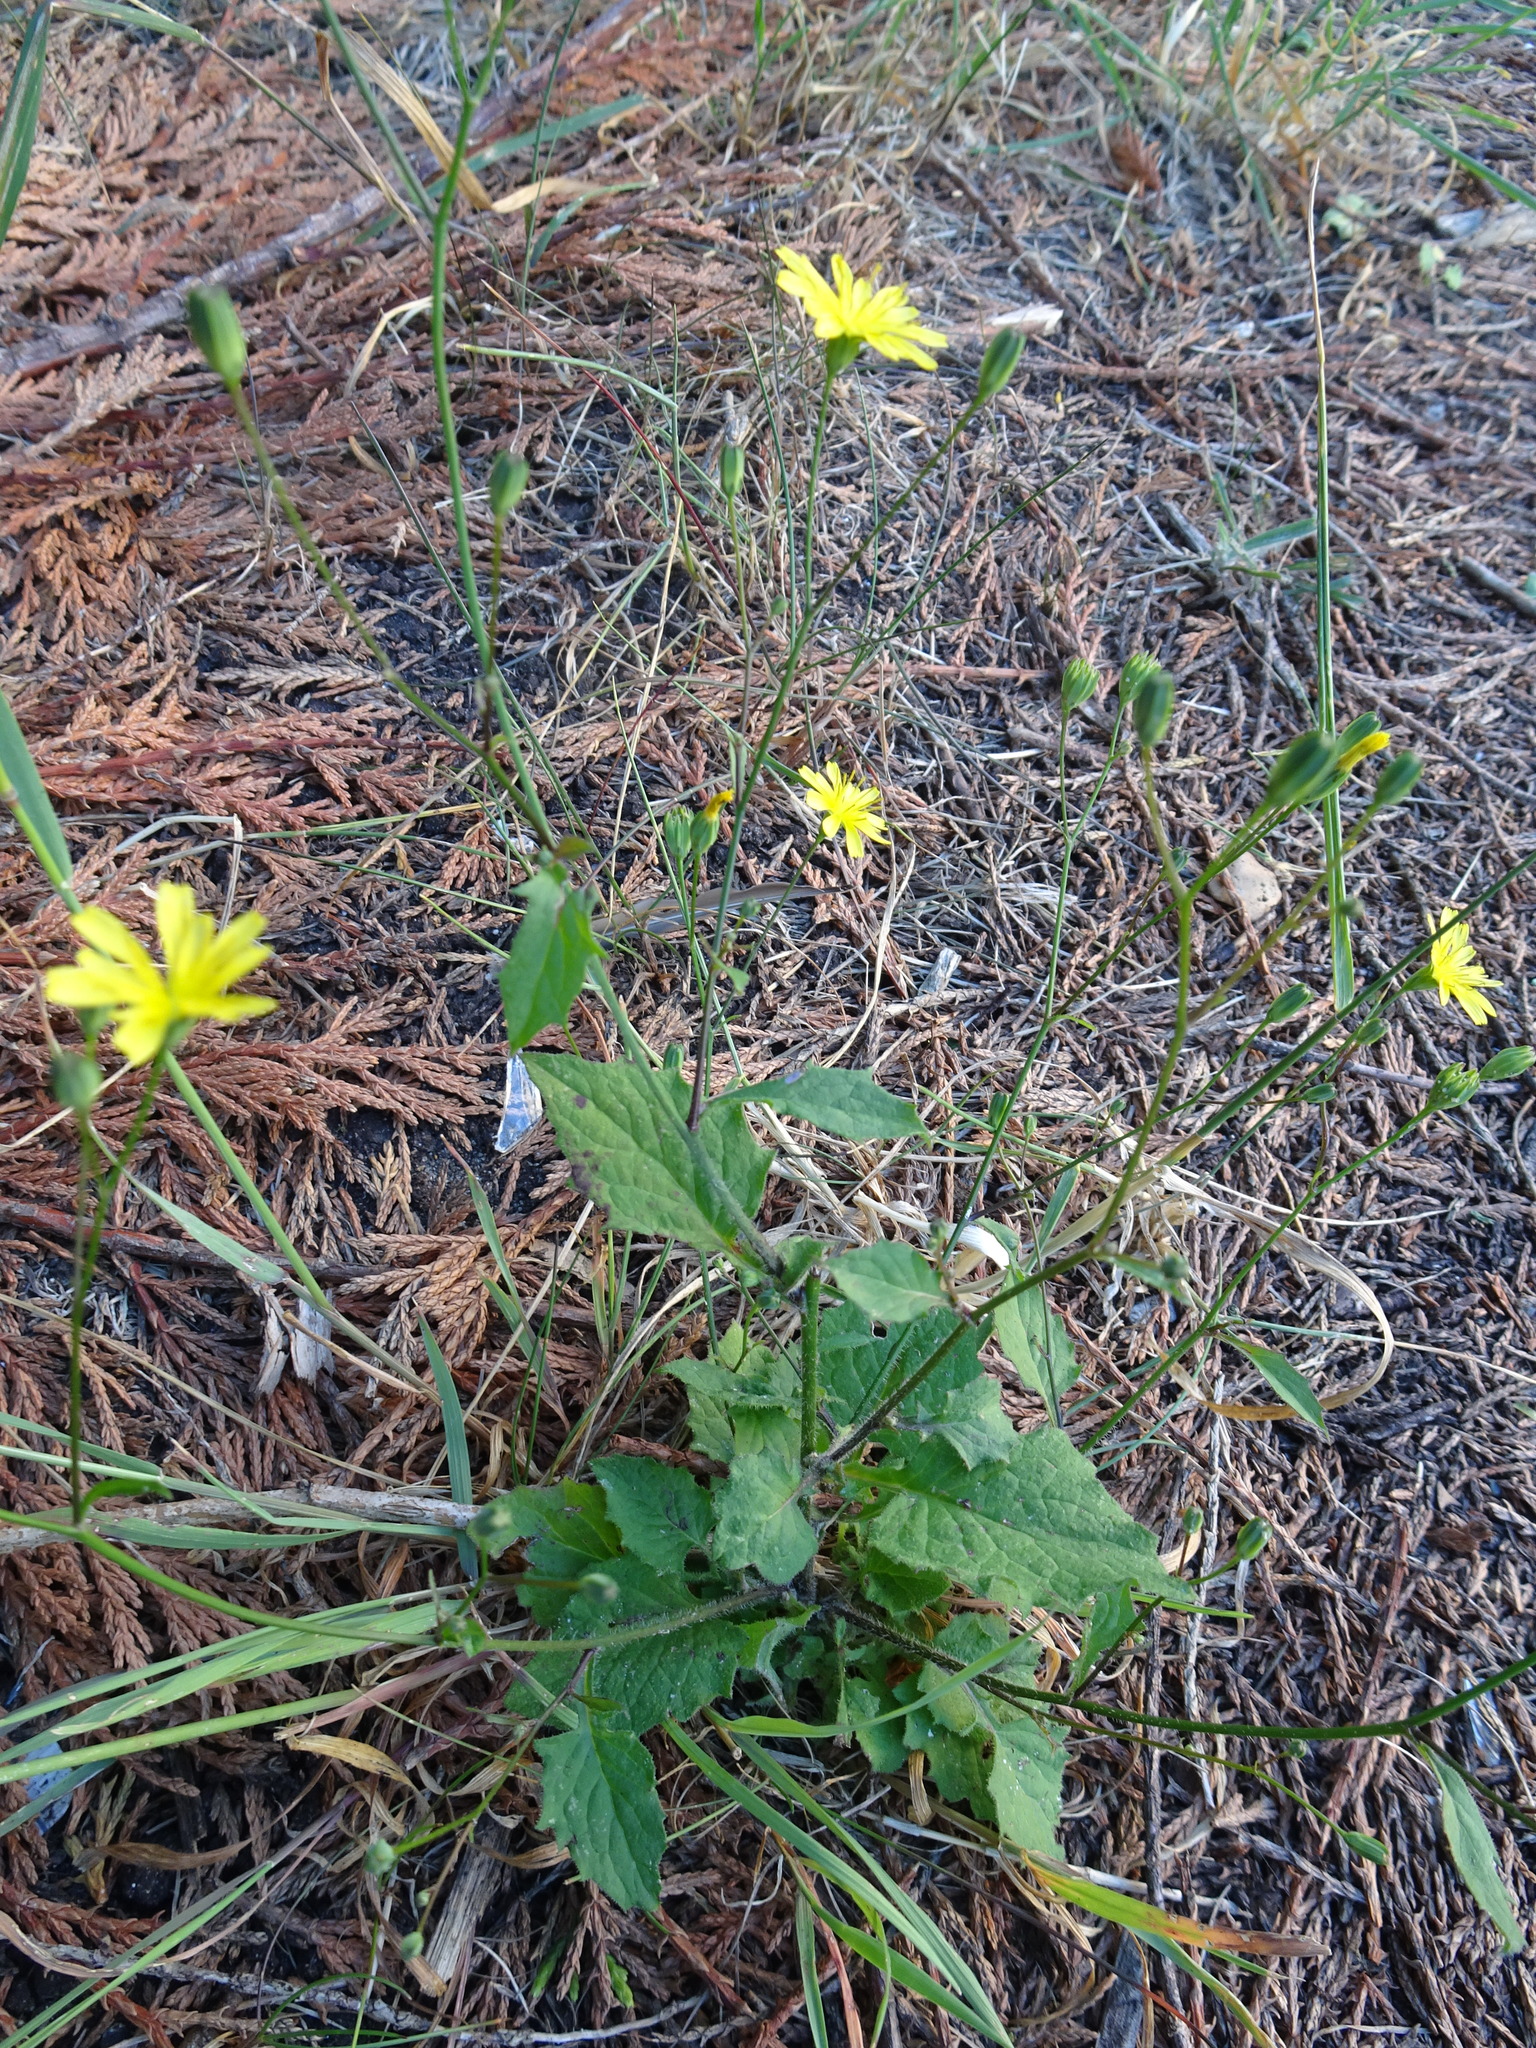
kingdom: Plantae
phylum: Tracheophyta
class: Magnoliopsida
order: Asterales
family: Asteraceae
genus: Lapsana
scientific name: Lapsana communis
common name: Nipplewort
